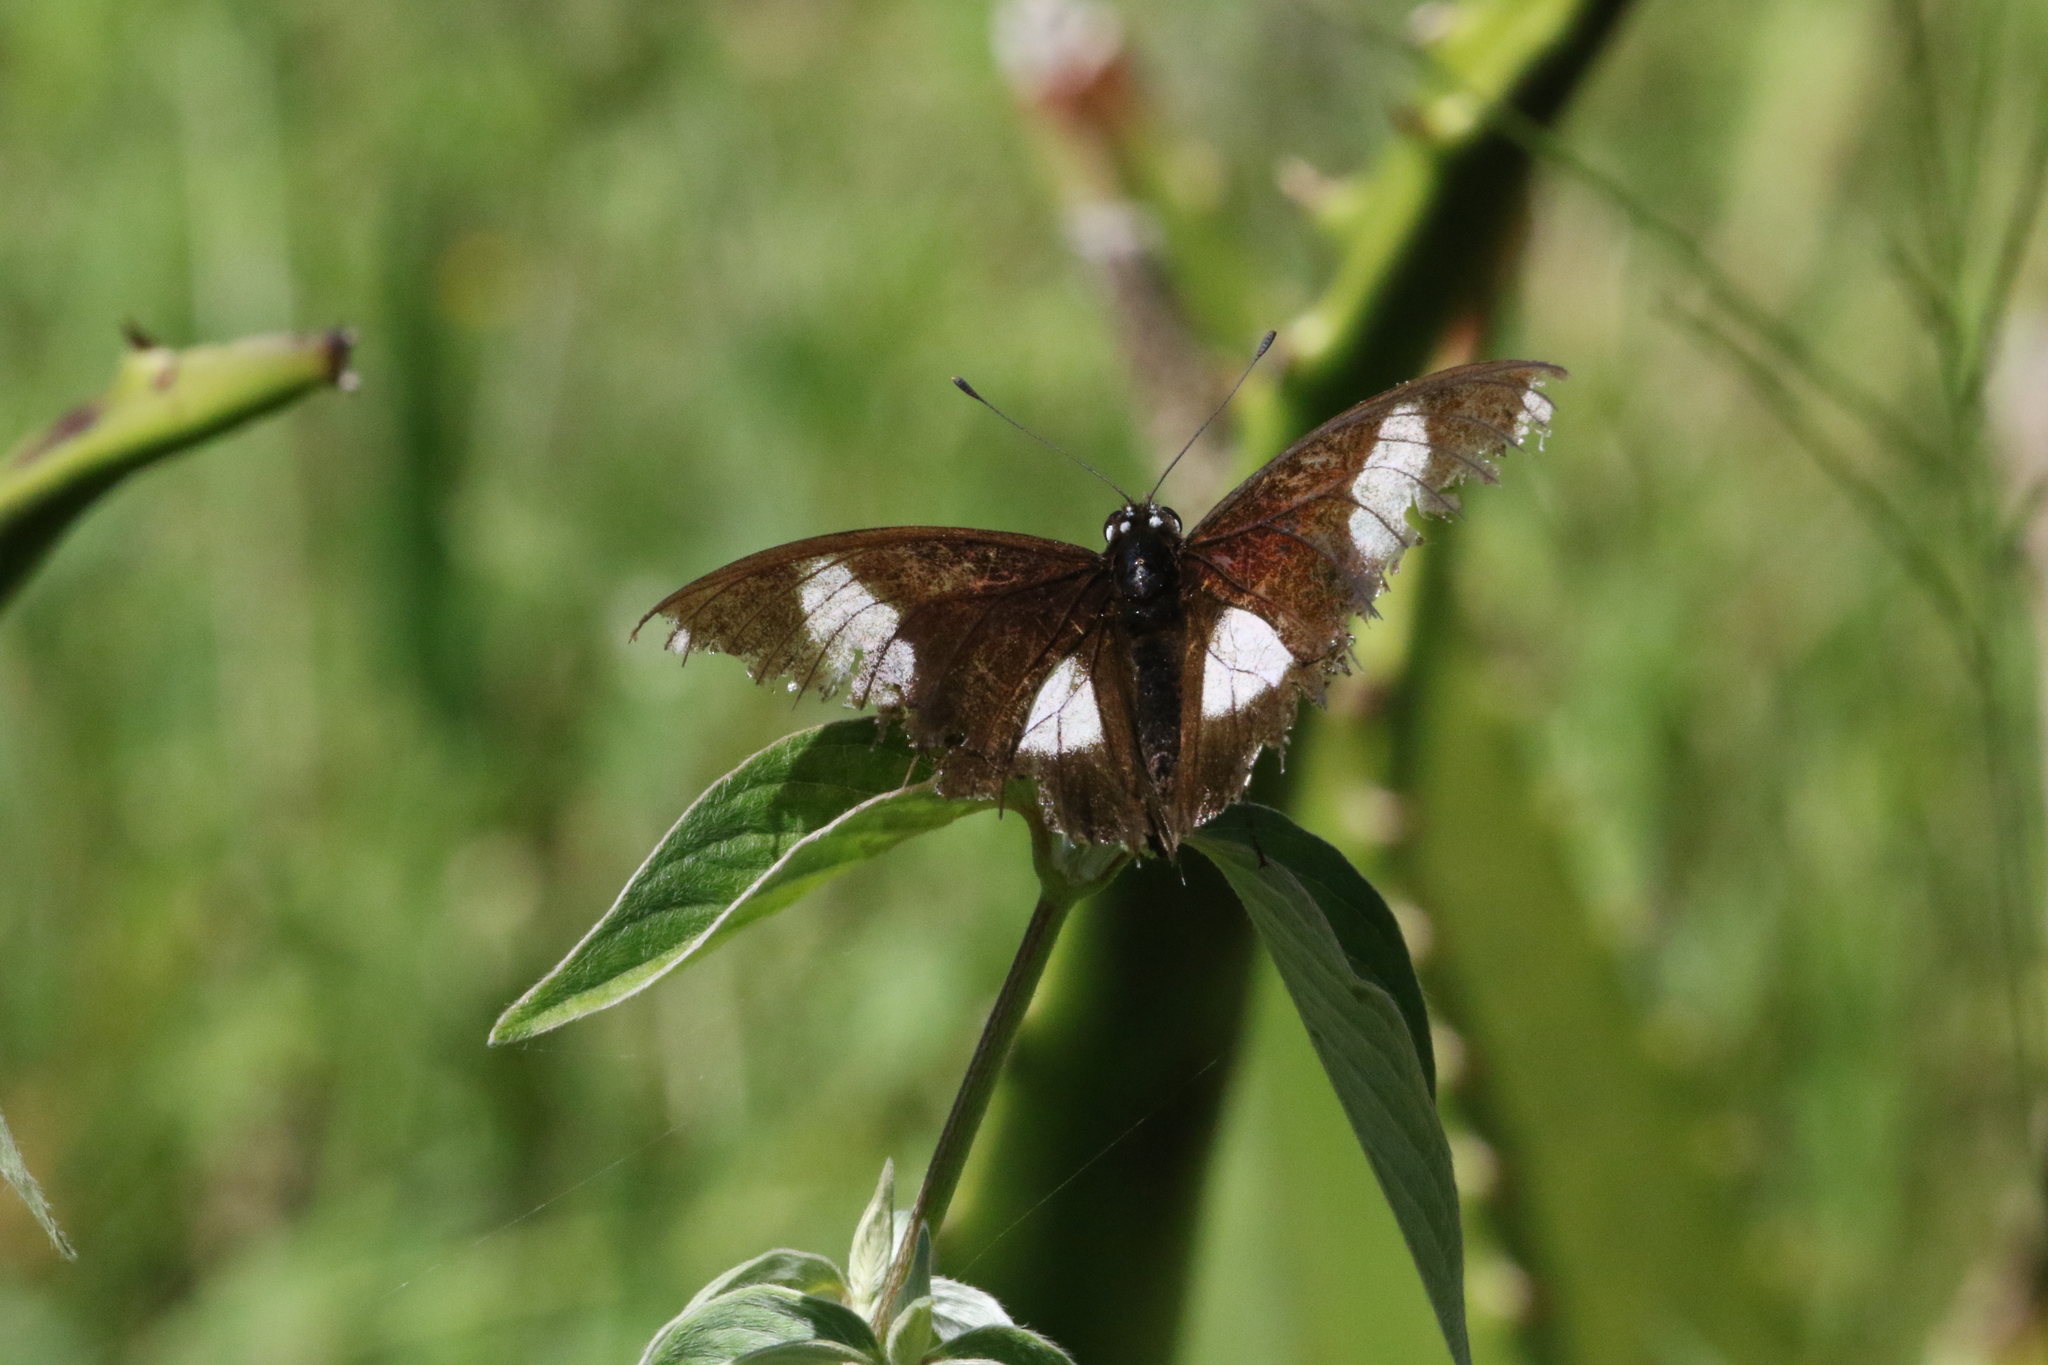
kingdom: Animalia
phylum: Arthropoda
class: Insecta
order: Lepidoptera
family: Nymphalidae
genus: Hypolimnas
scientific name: Hypolimnas misippus
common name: False plain tiger
